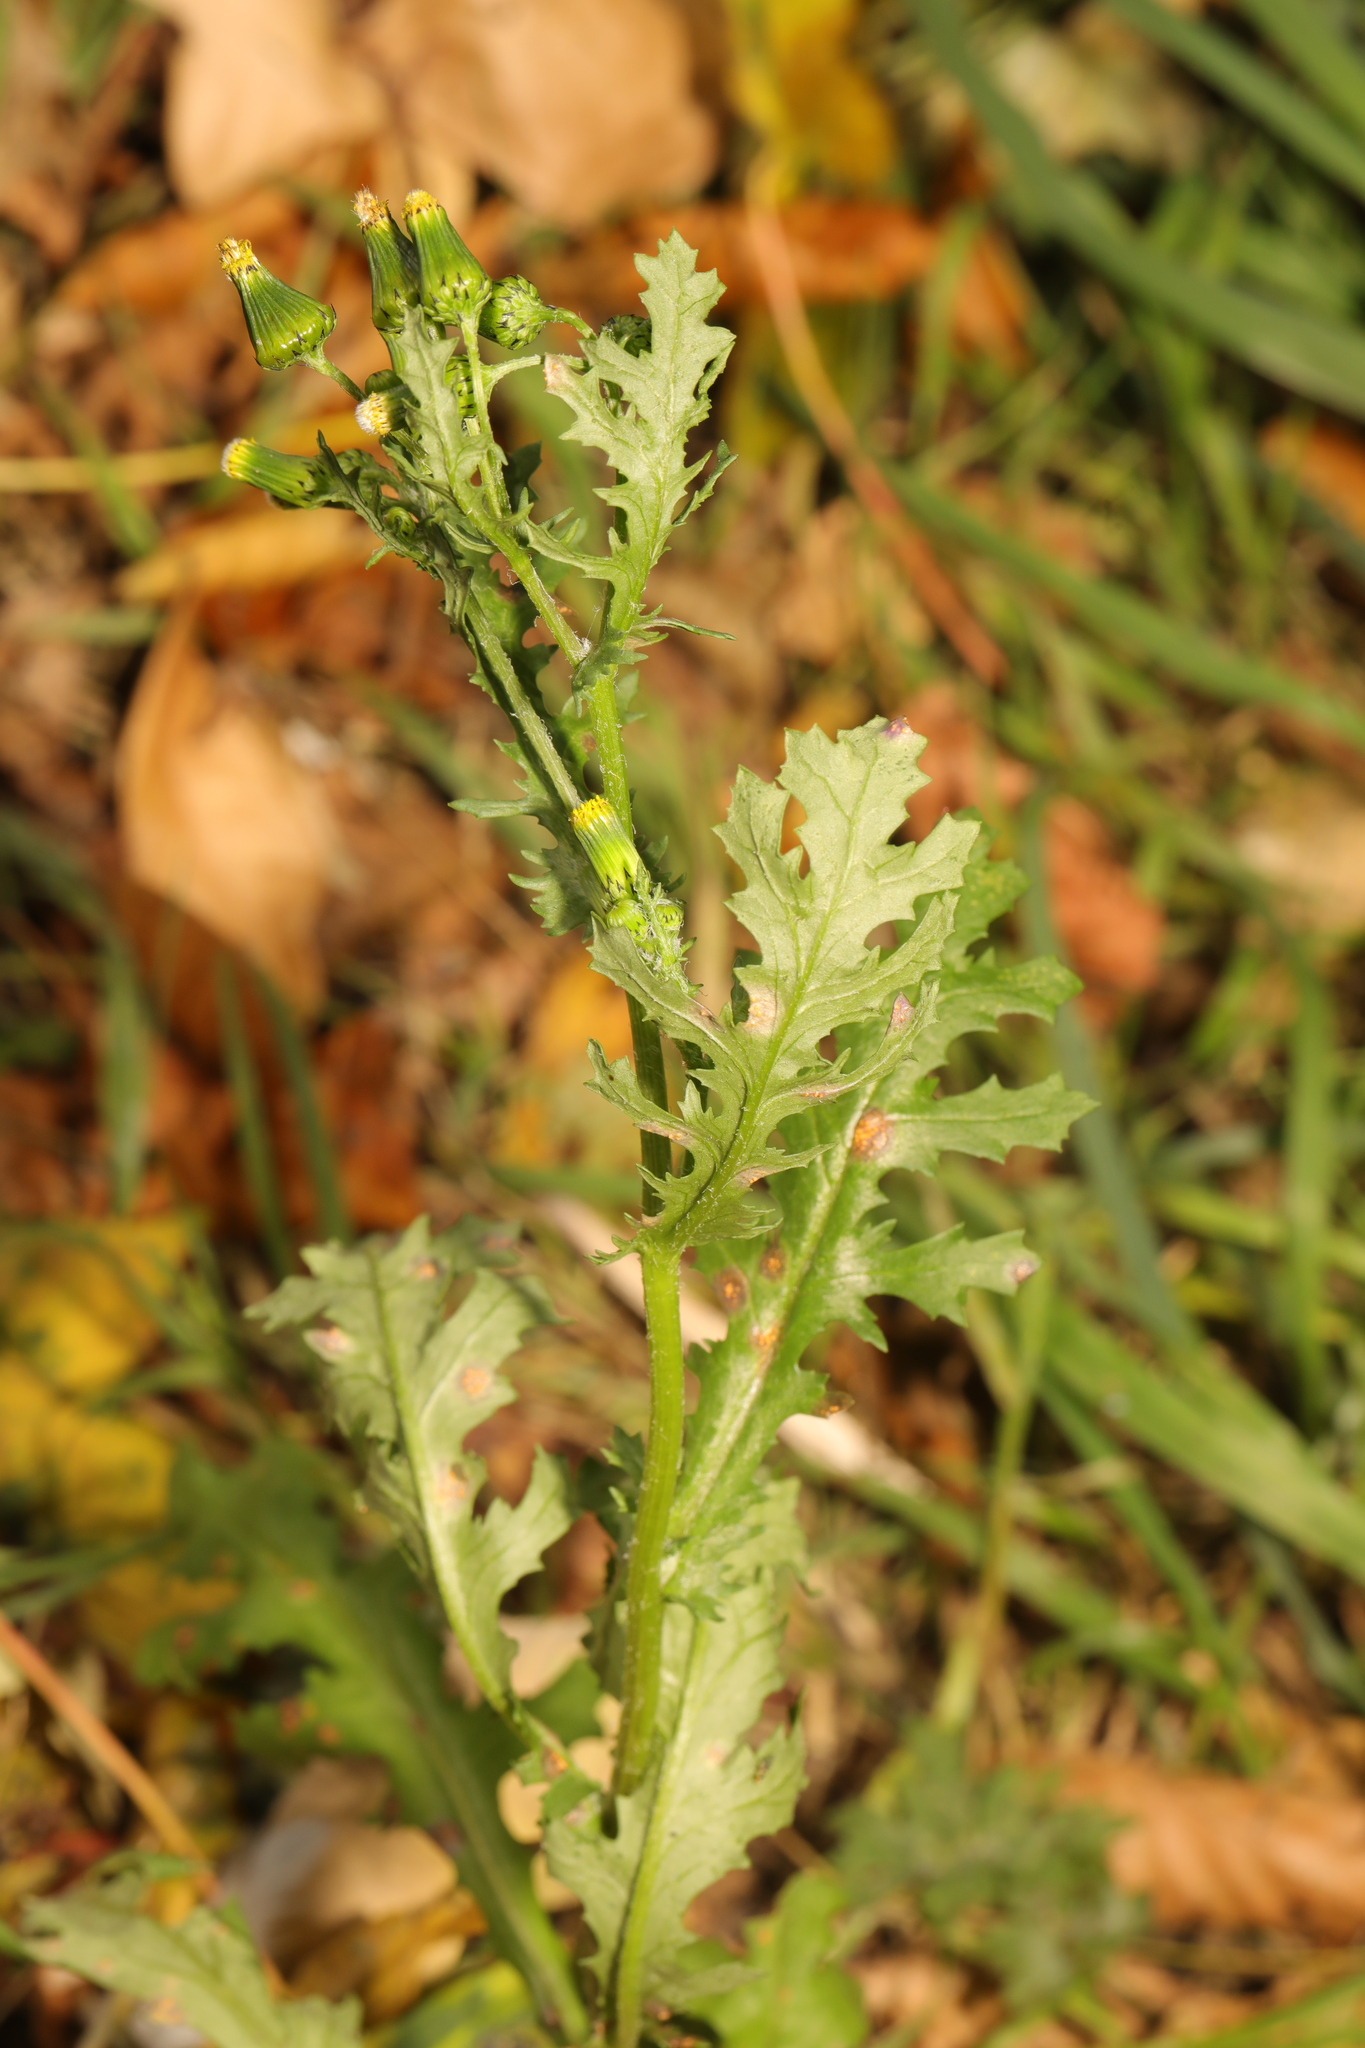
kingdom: Plantae
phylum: Tracheophyta
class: Magnoliopsida
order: Asterales
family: Asteraceae
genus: Senecio
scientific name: Senecio vulgaris
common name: Old-man-in-the-spring
